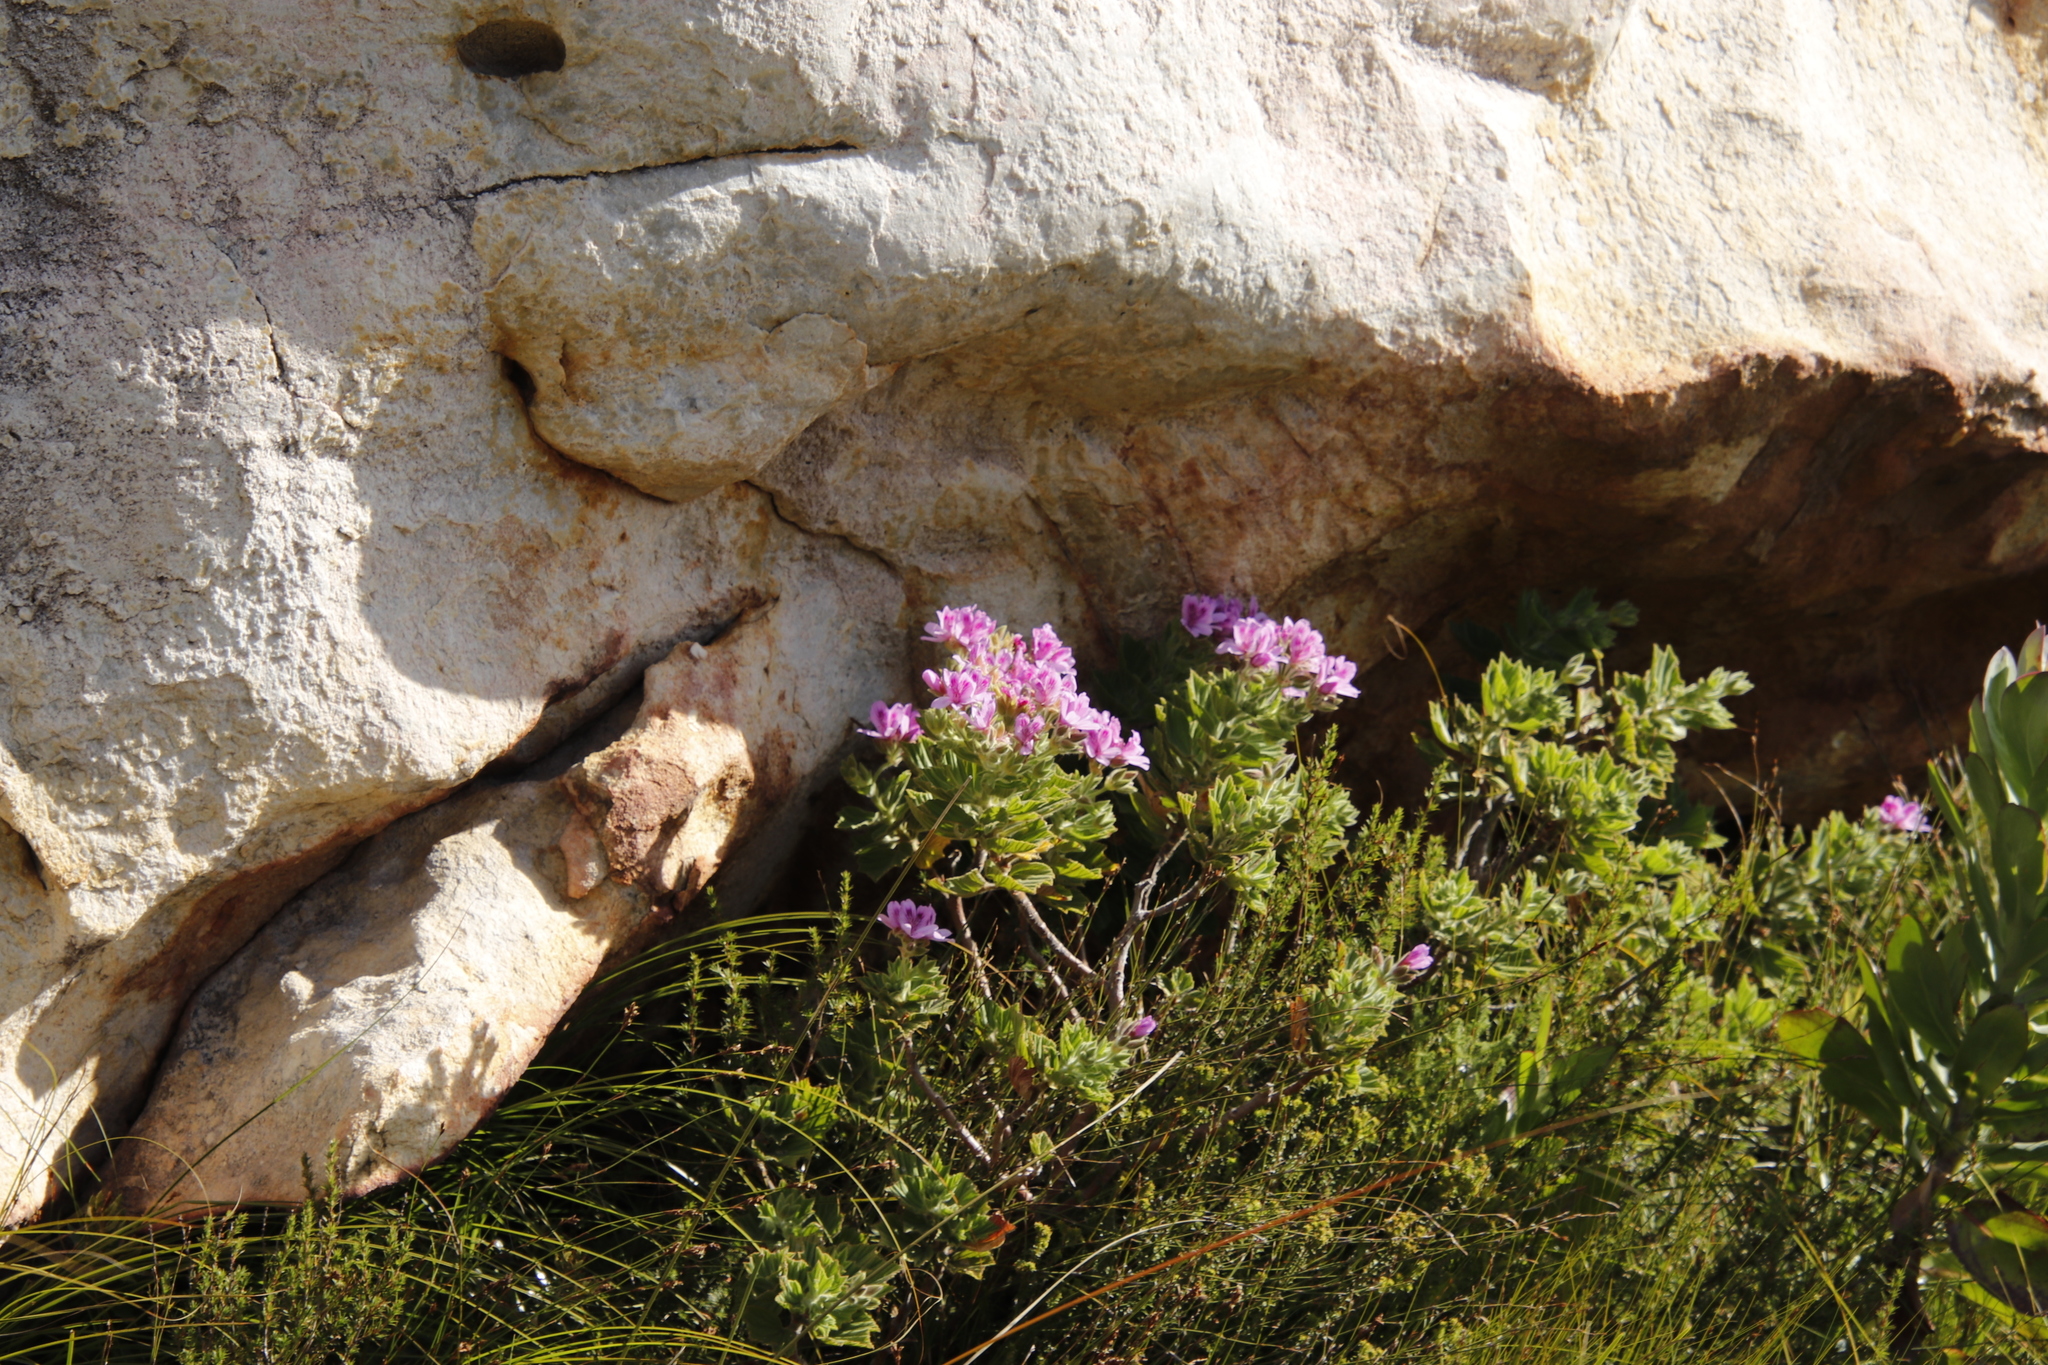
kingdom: Plantae
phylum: Tracheophyta
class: Magnoliopsida
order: Geraniales
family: Geraniaceae
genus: Pelargonium
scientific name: Pelargonium cucullatum
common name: Tree pelargonium
